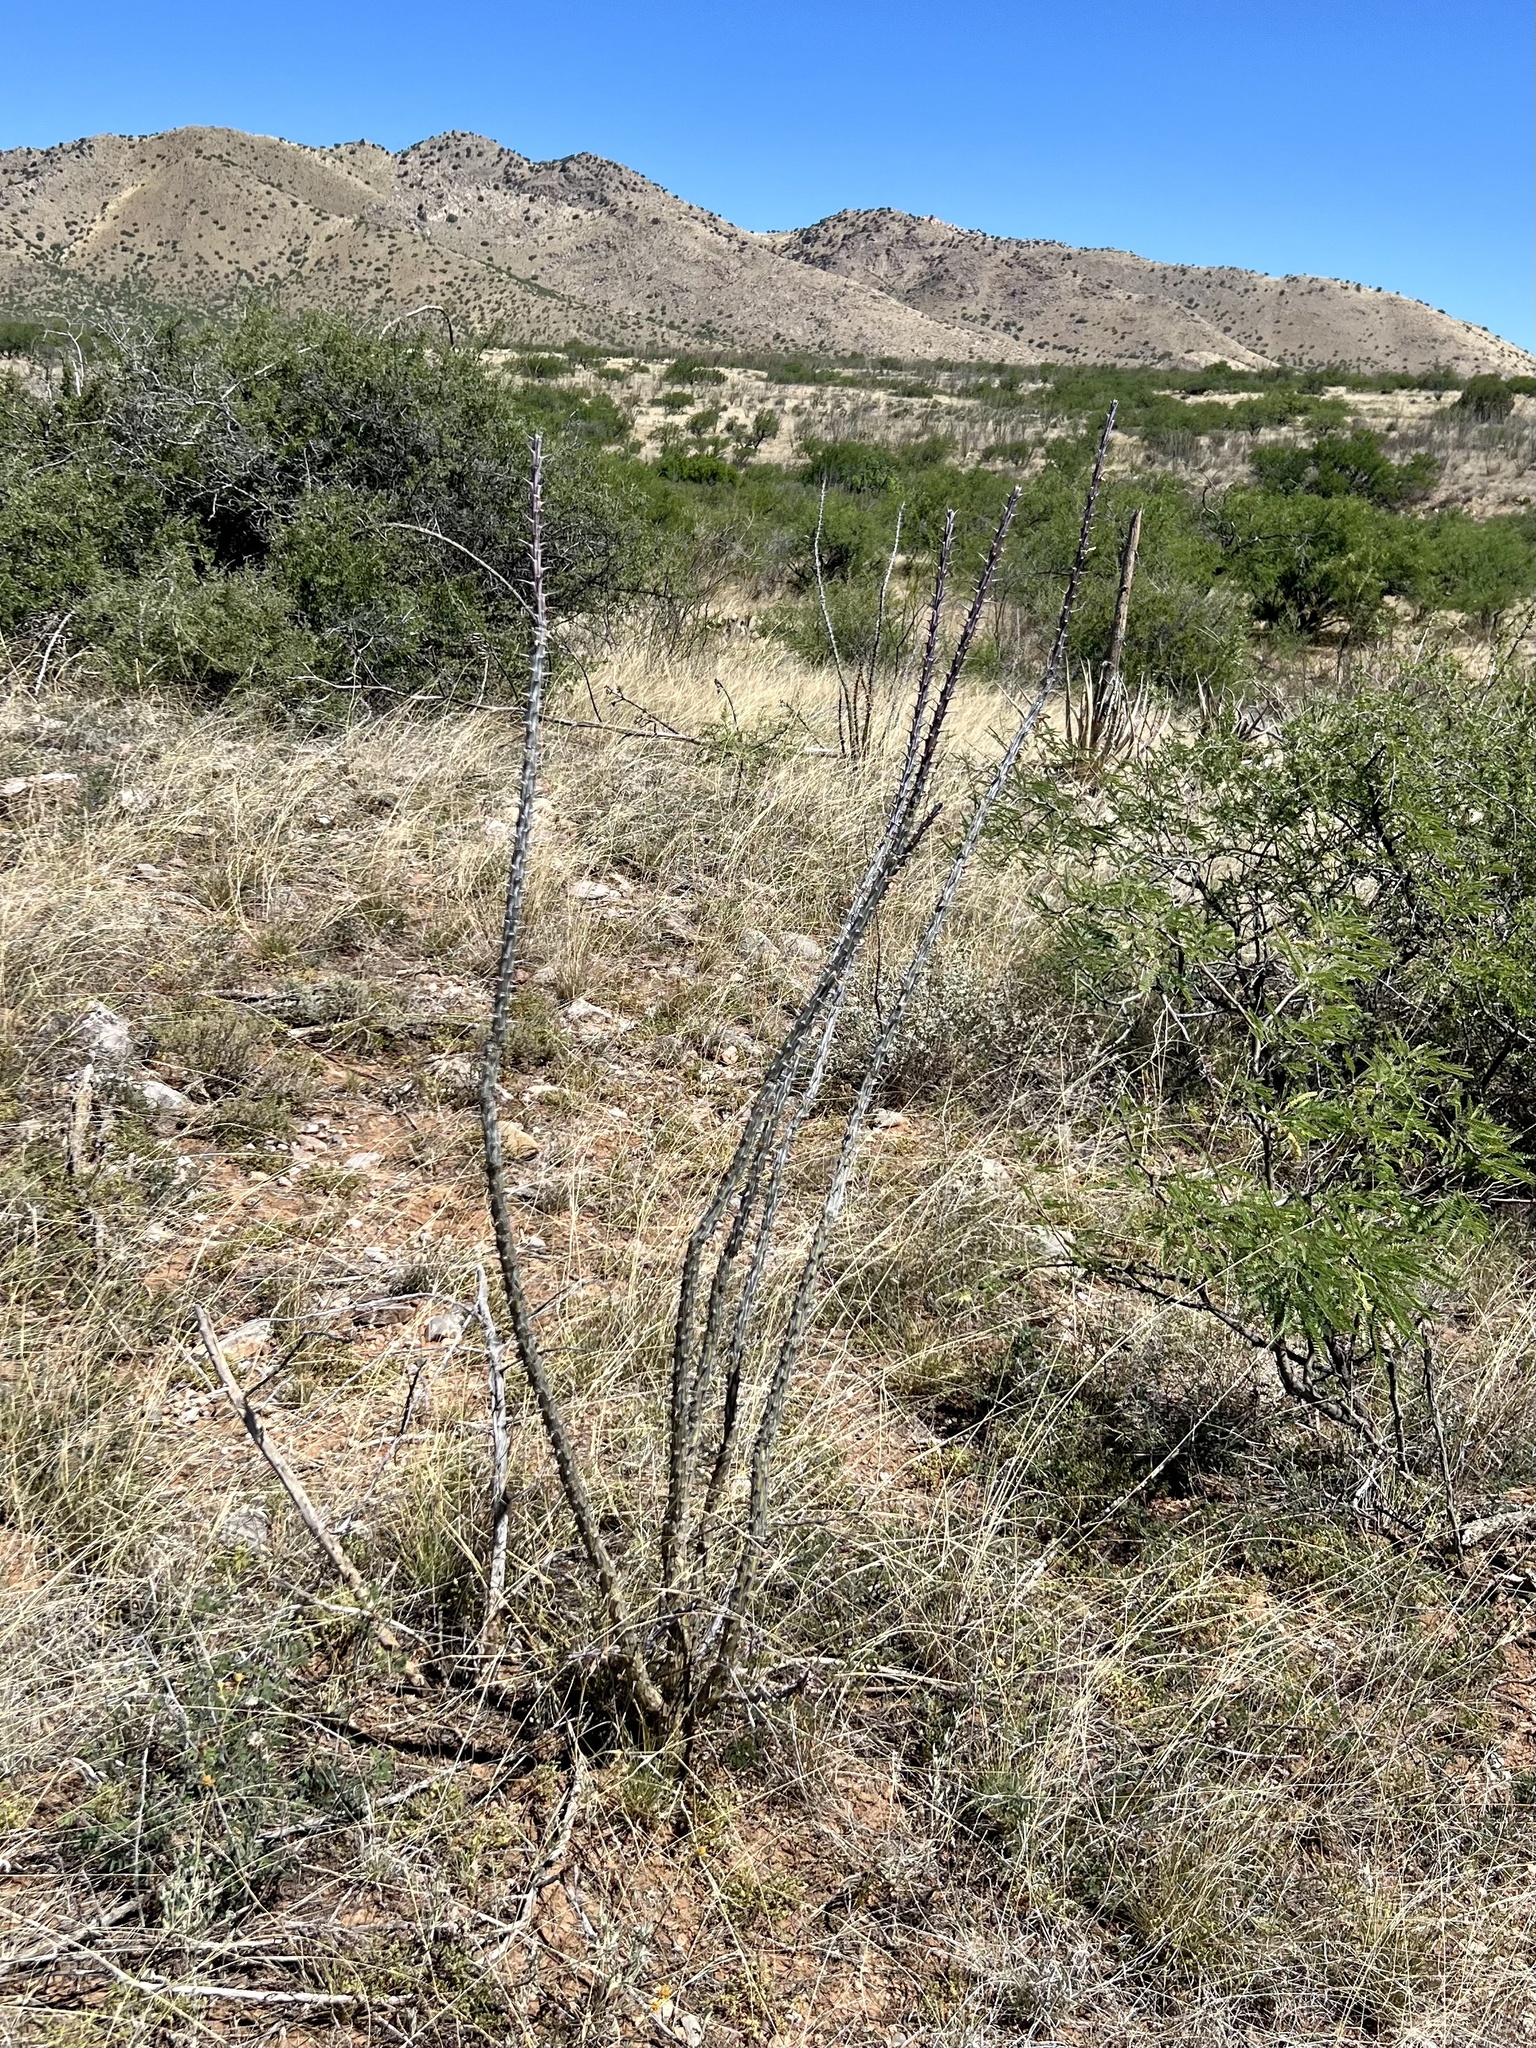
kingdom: Plantae
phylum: Tracheophyta
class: Magnoliopsida
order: Ericales
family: Fouquieriaceae
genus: Fouquieria
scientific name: Fouquieria splendens
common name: Vine-cactus
